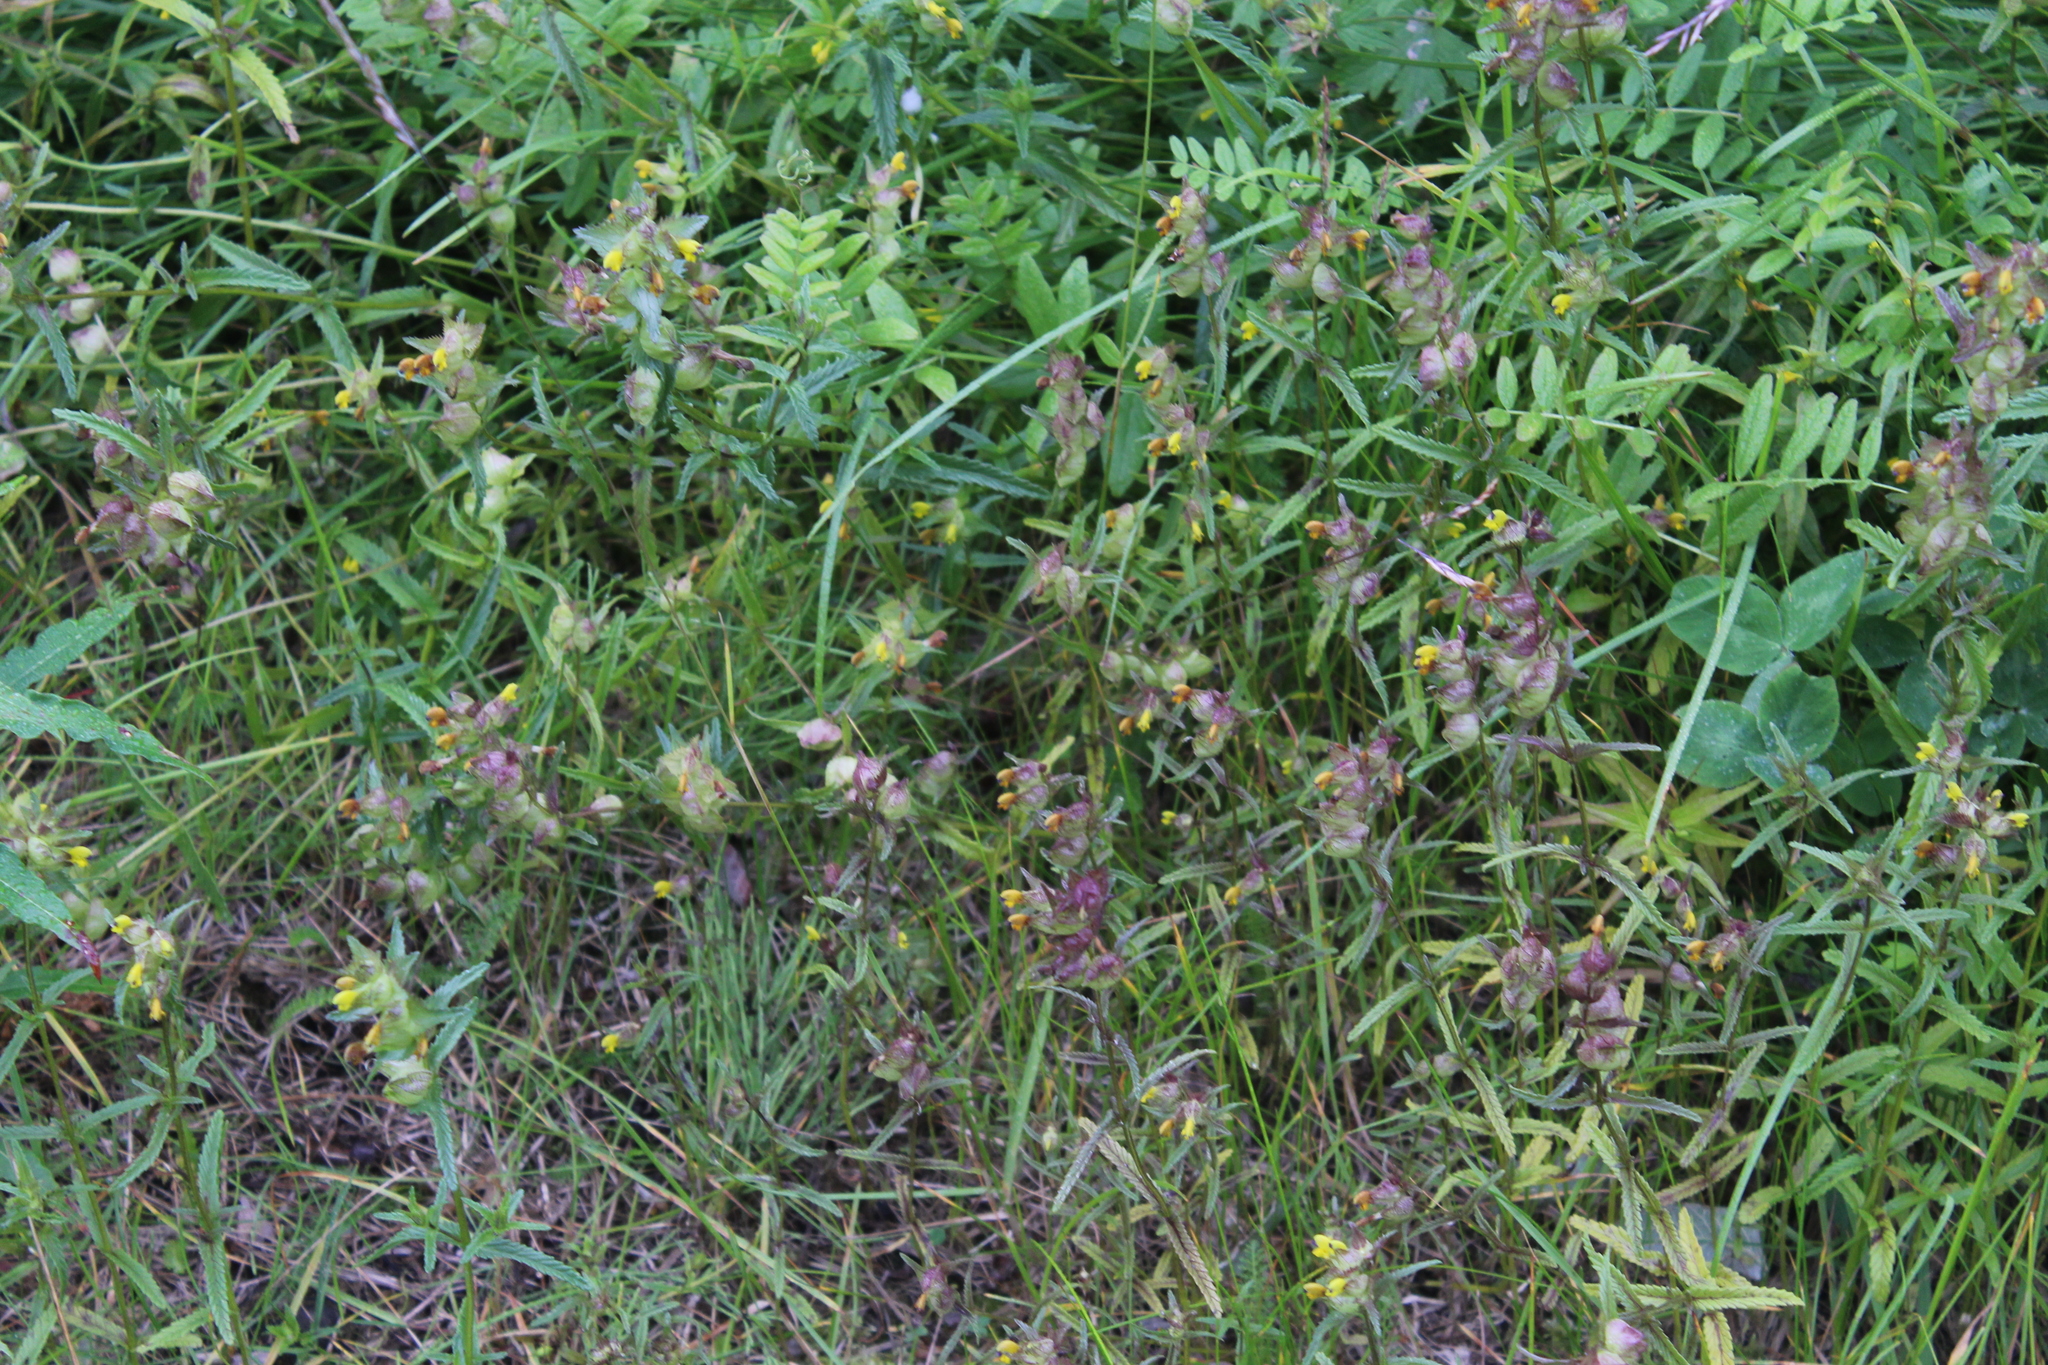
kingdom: Plantae
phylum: Tracheophyta
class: Magnoliopsida
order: Lamiales
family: Orobanchaceae
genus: Rhinanthus
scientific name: Rhinanthus minor
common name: Yellow-rattle
